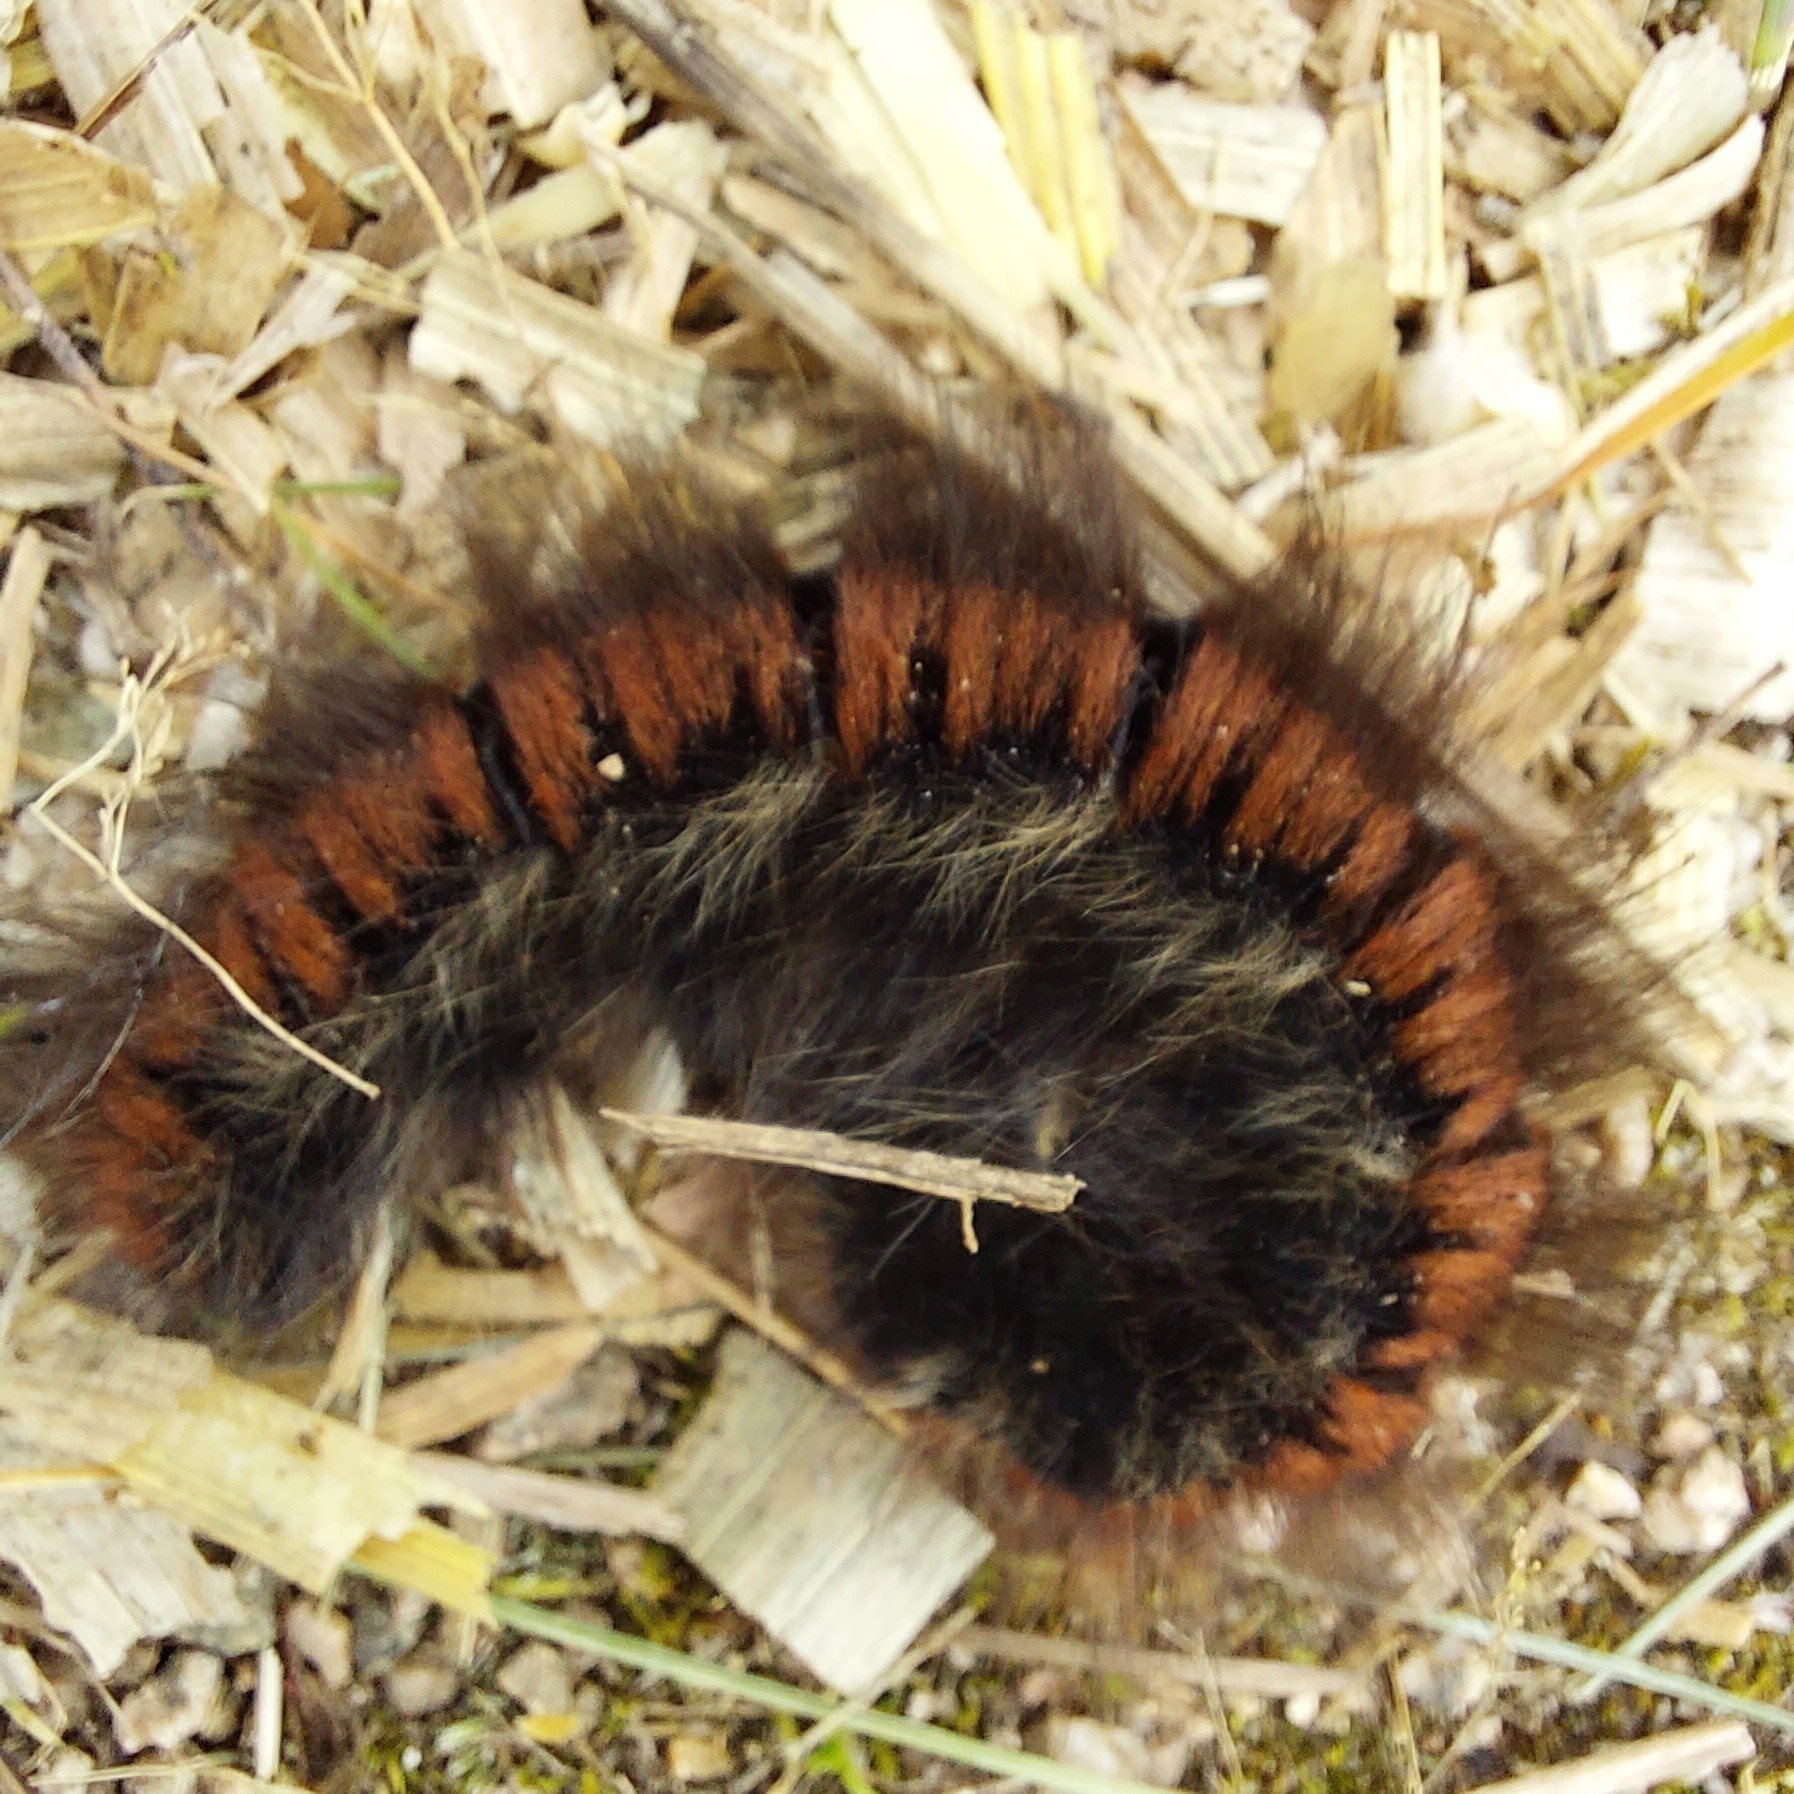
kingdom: Animalia
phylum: Arthropoda
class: Insecta
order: Lepidoptera
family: Lasiocampidae
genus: Macrothylacia
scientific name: Macrothylacia rubi
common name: Fox moth
